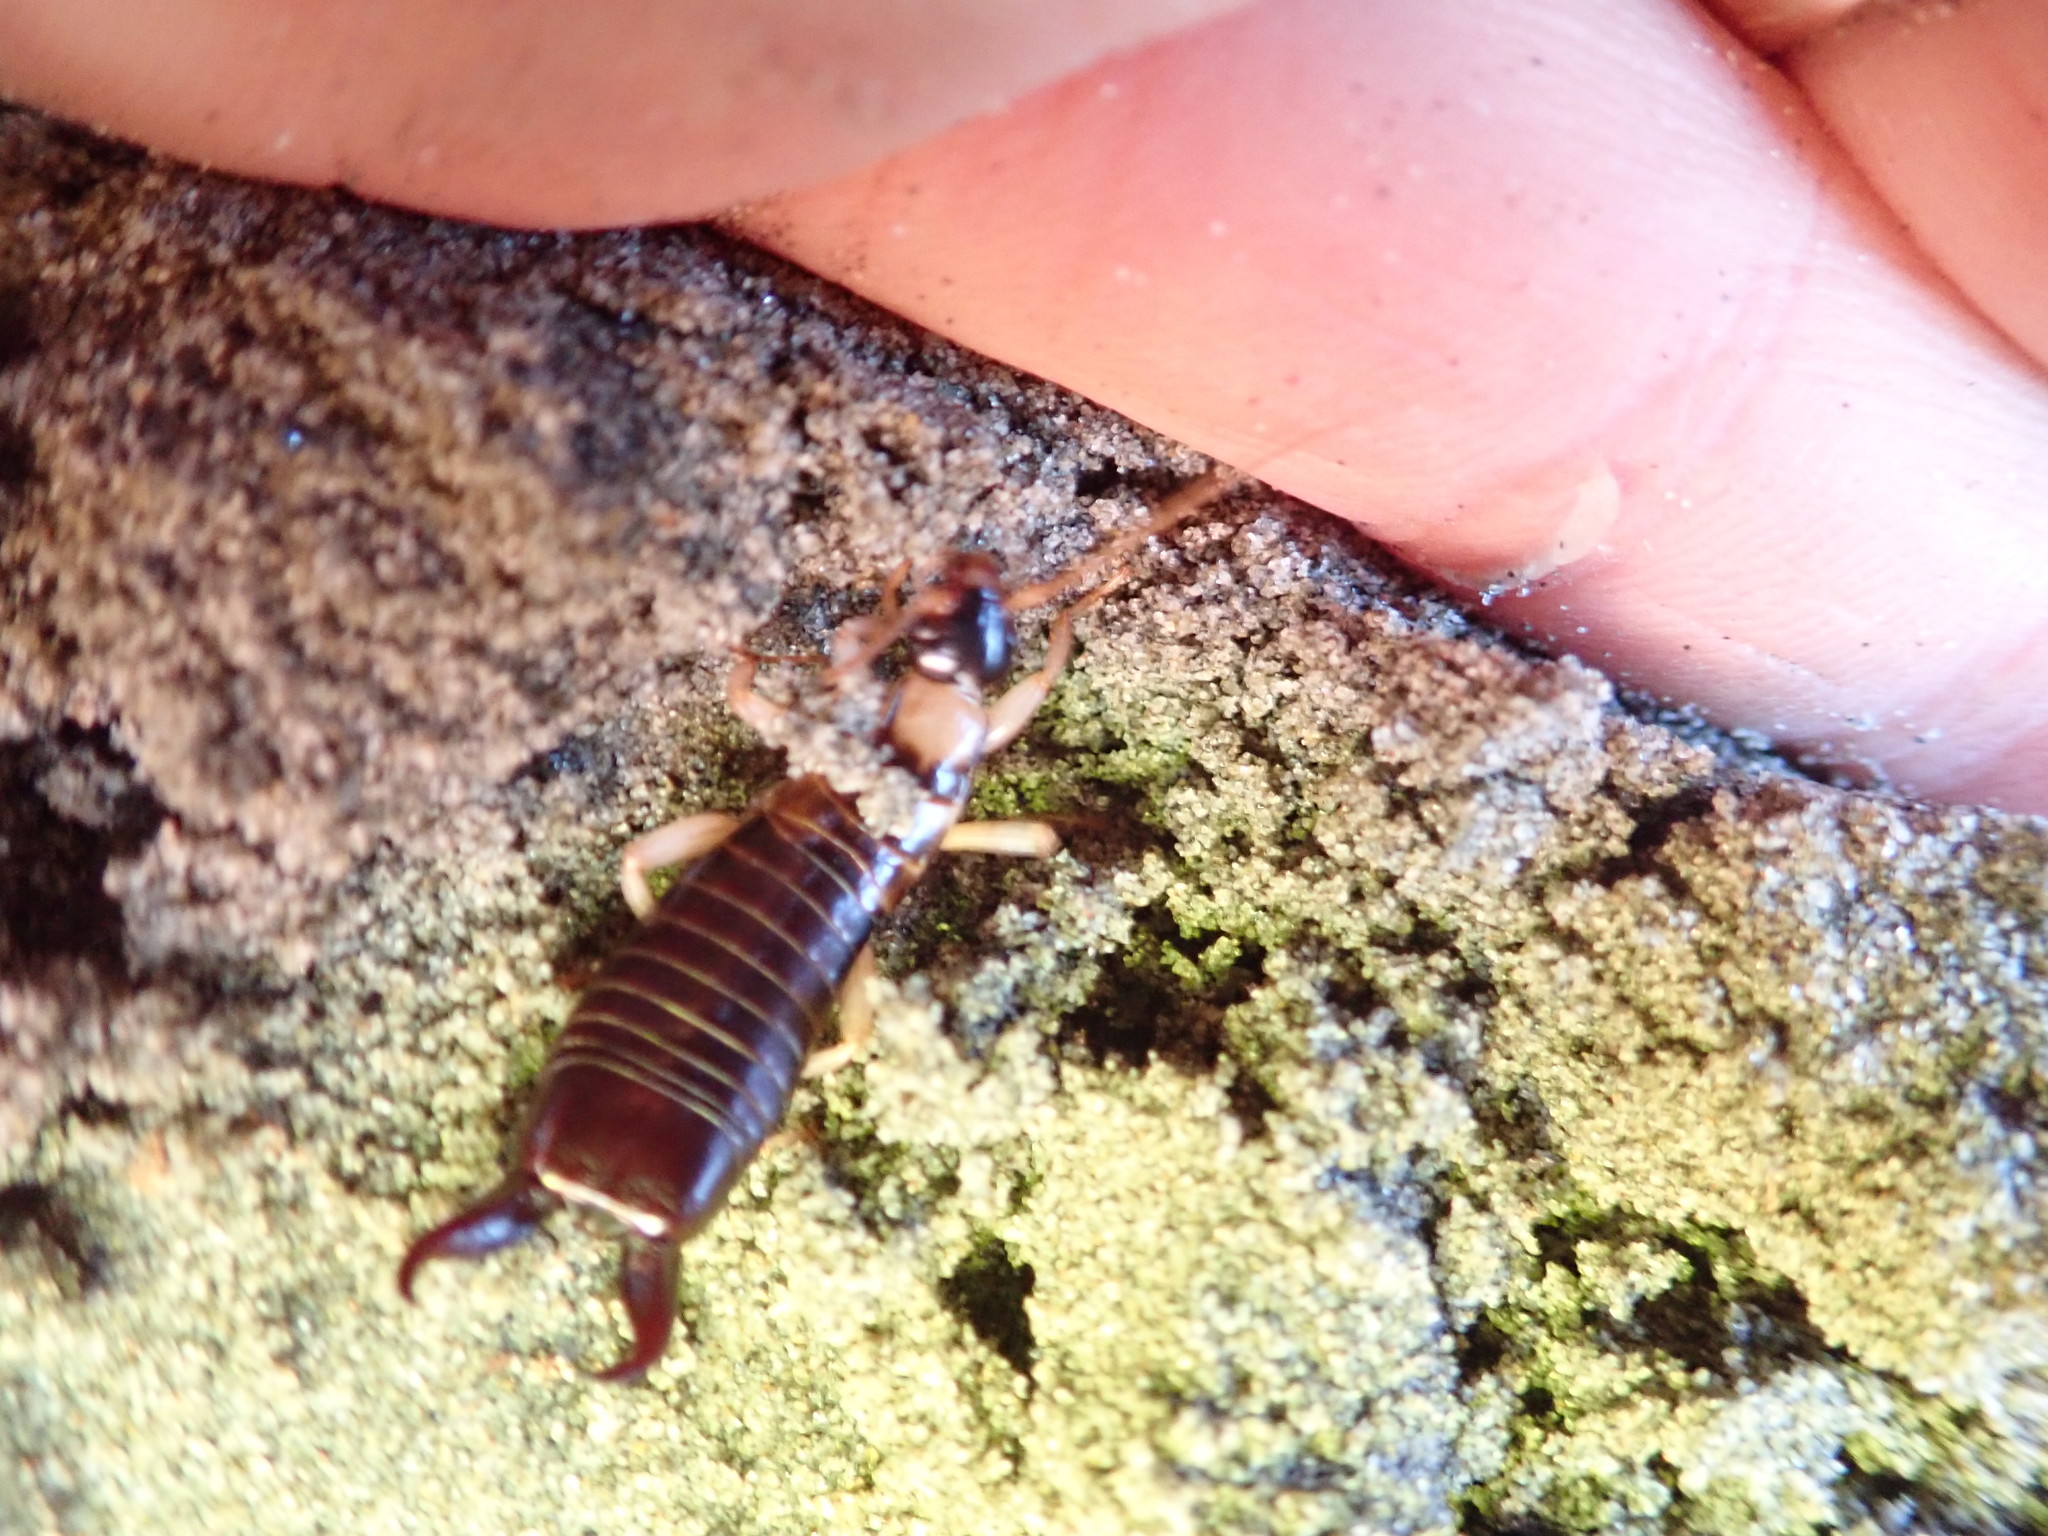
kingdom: Animalia
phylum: Arthropoda
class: Insecta
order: Dermaptera
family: Anisolabididae
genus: Anisolabis
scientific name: Anisolabis littorea
